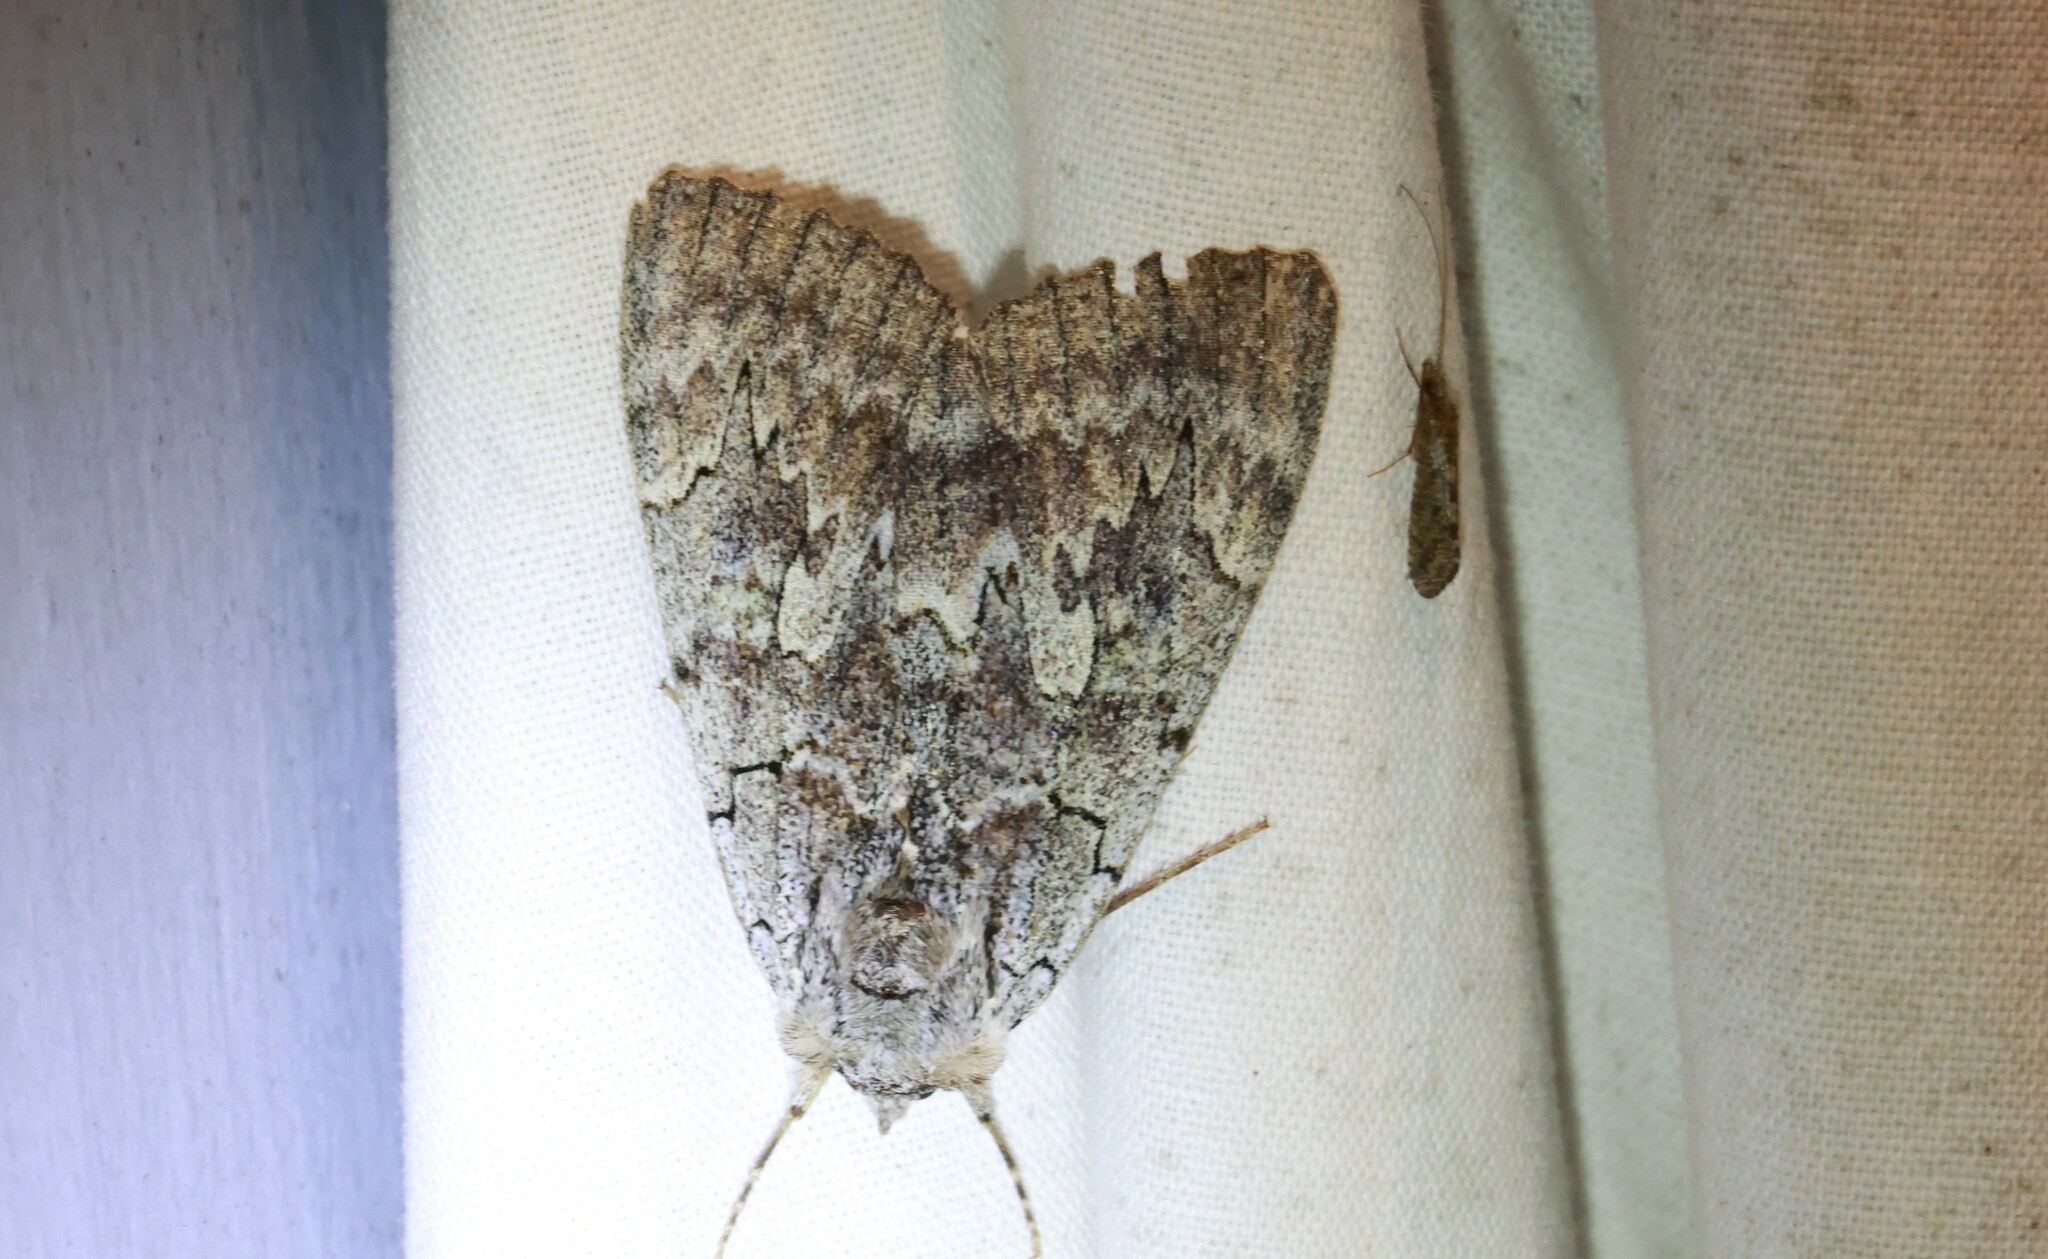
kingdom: Animalia
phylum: Arthropoda
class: Insecta
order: Lepidoptera
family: Erebidae
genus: Catocala
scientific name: Catocala concumbens
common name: Pink underwing
